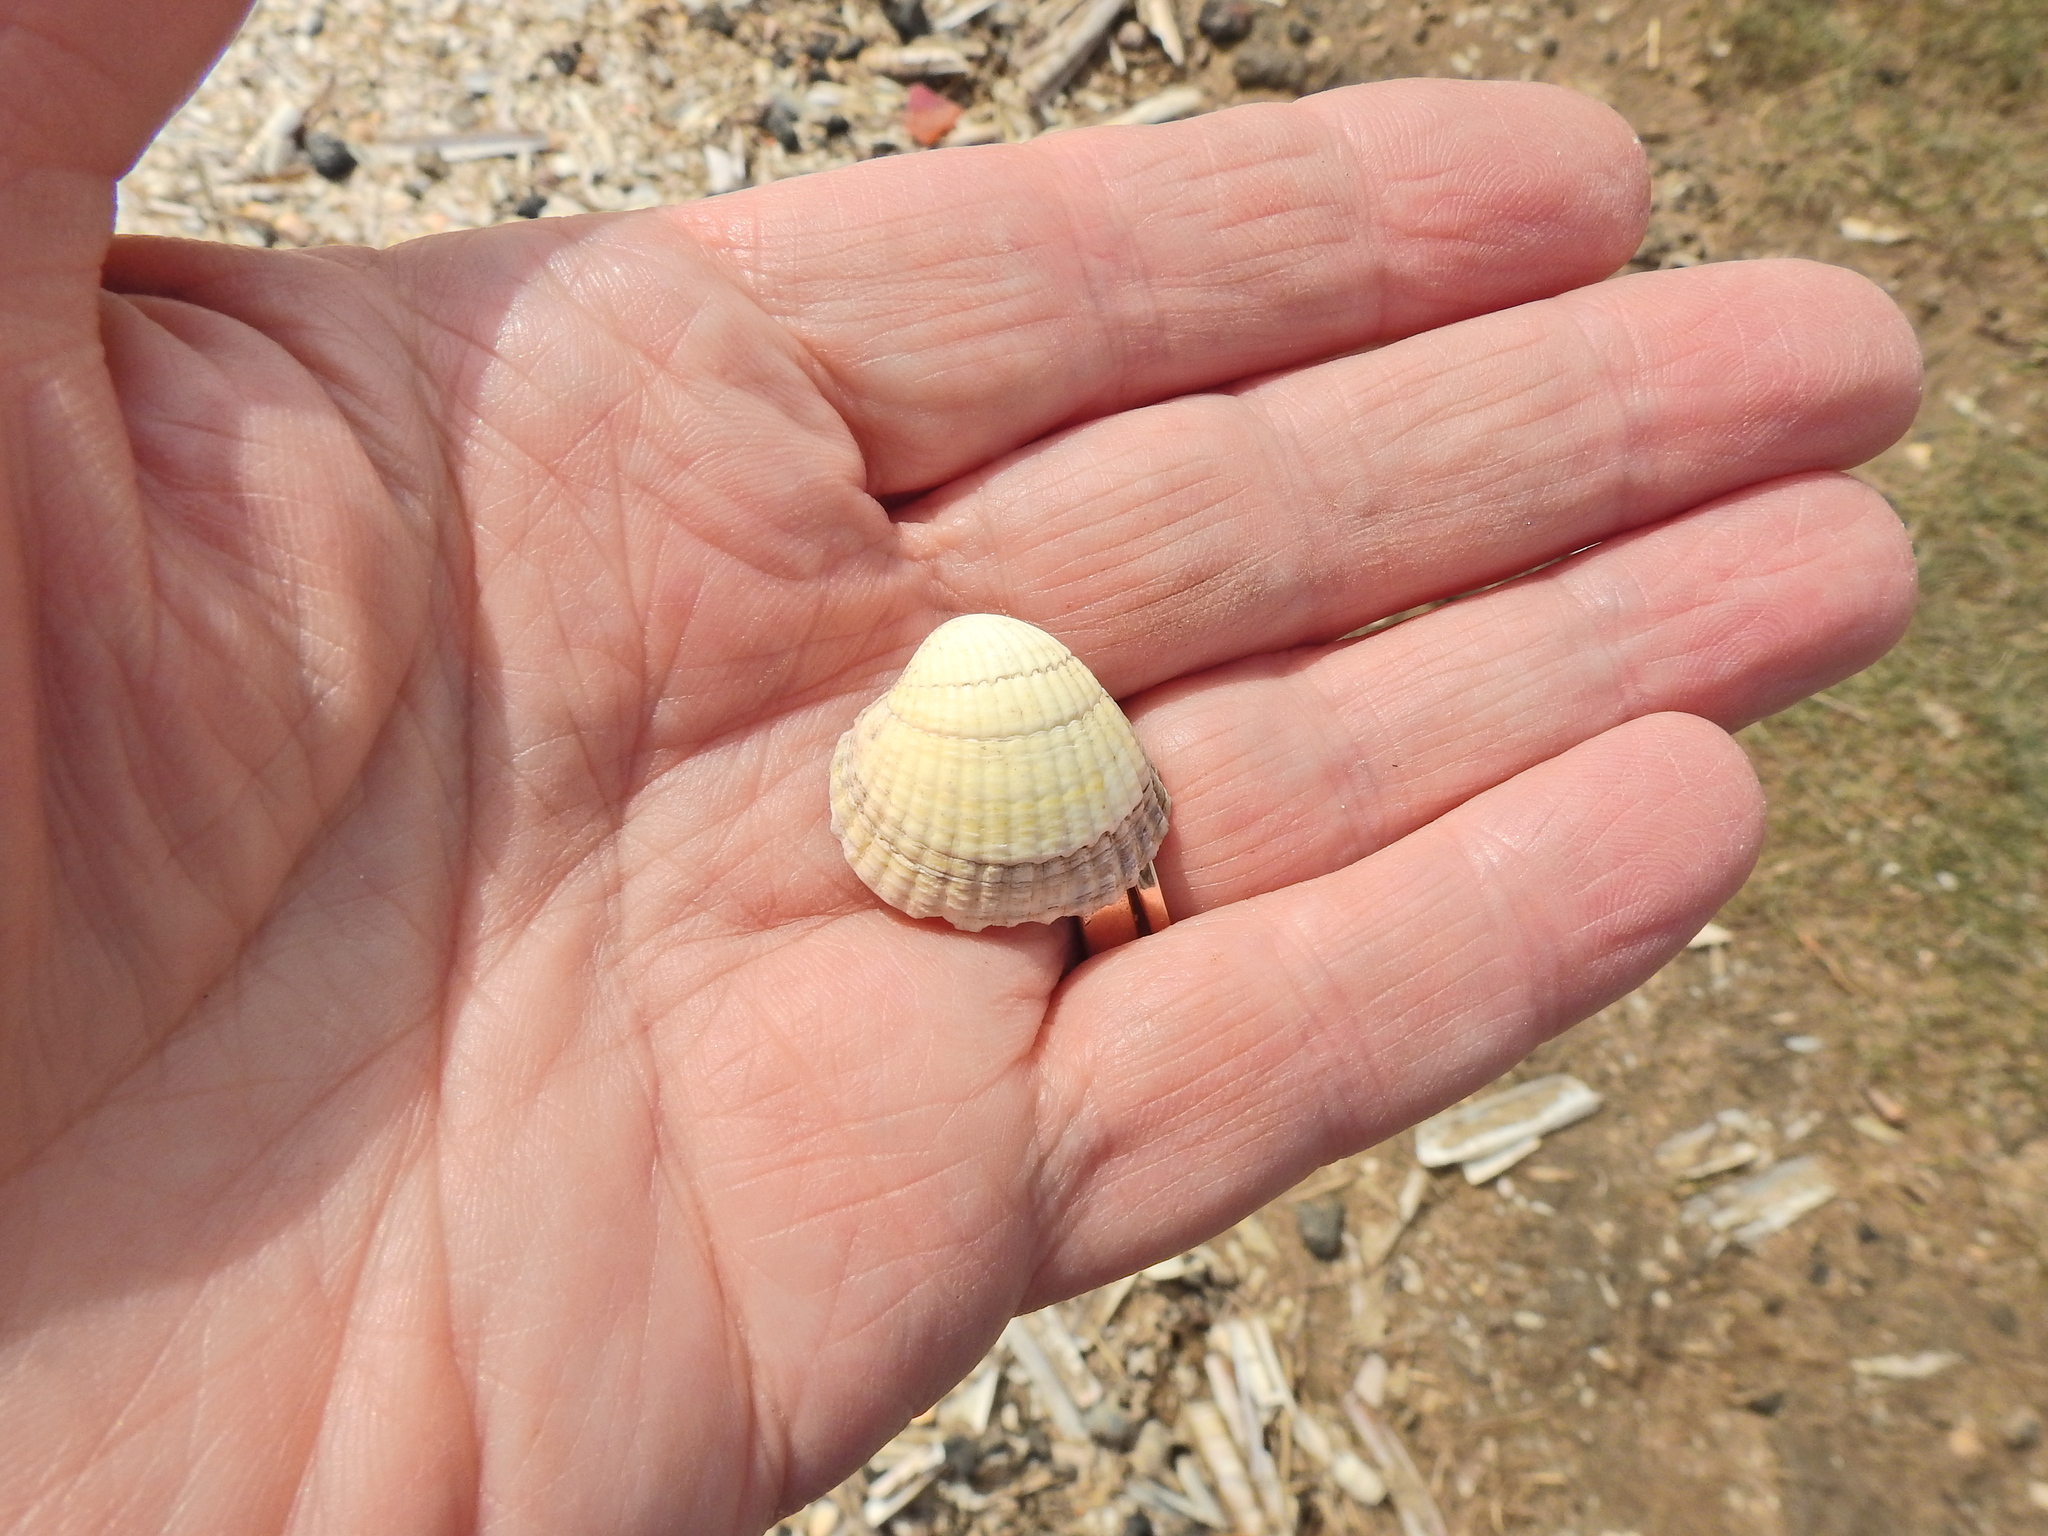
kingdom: Animalia
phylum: Mollusca
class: Bivalvia
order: Cardiida
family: Cardiidae
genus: Cerastoderma
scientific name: Cerastoderma edule
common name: Common cockle
